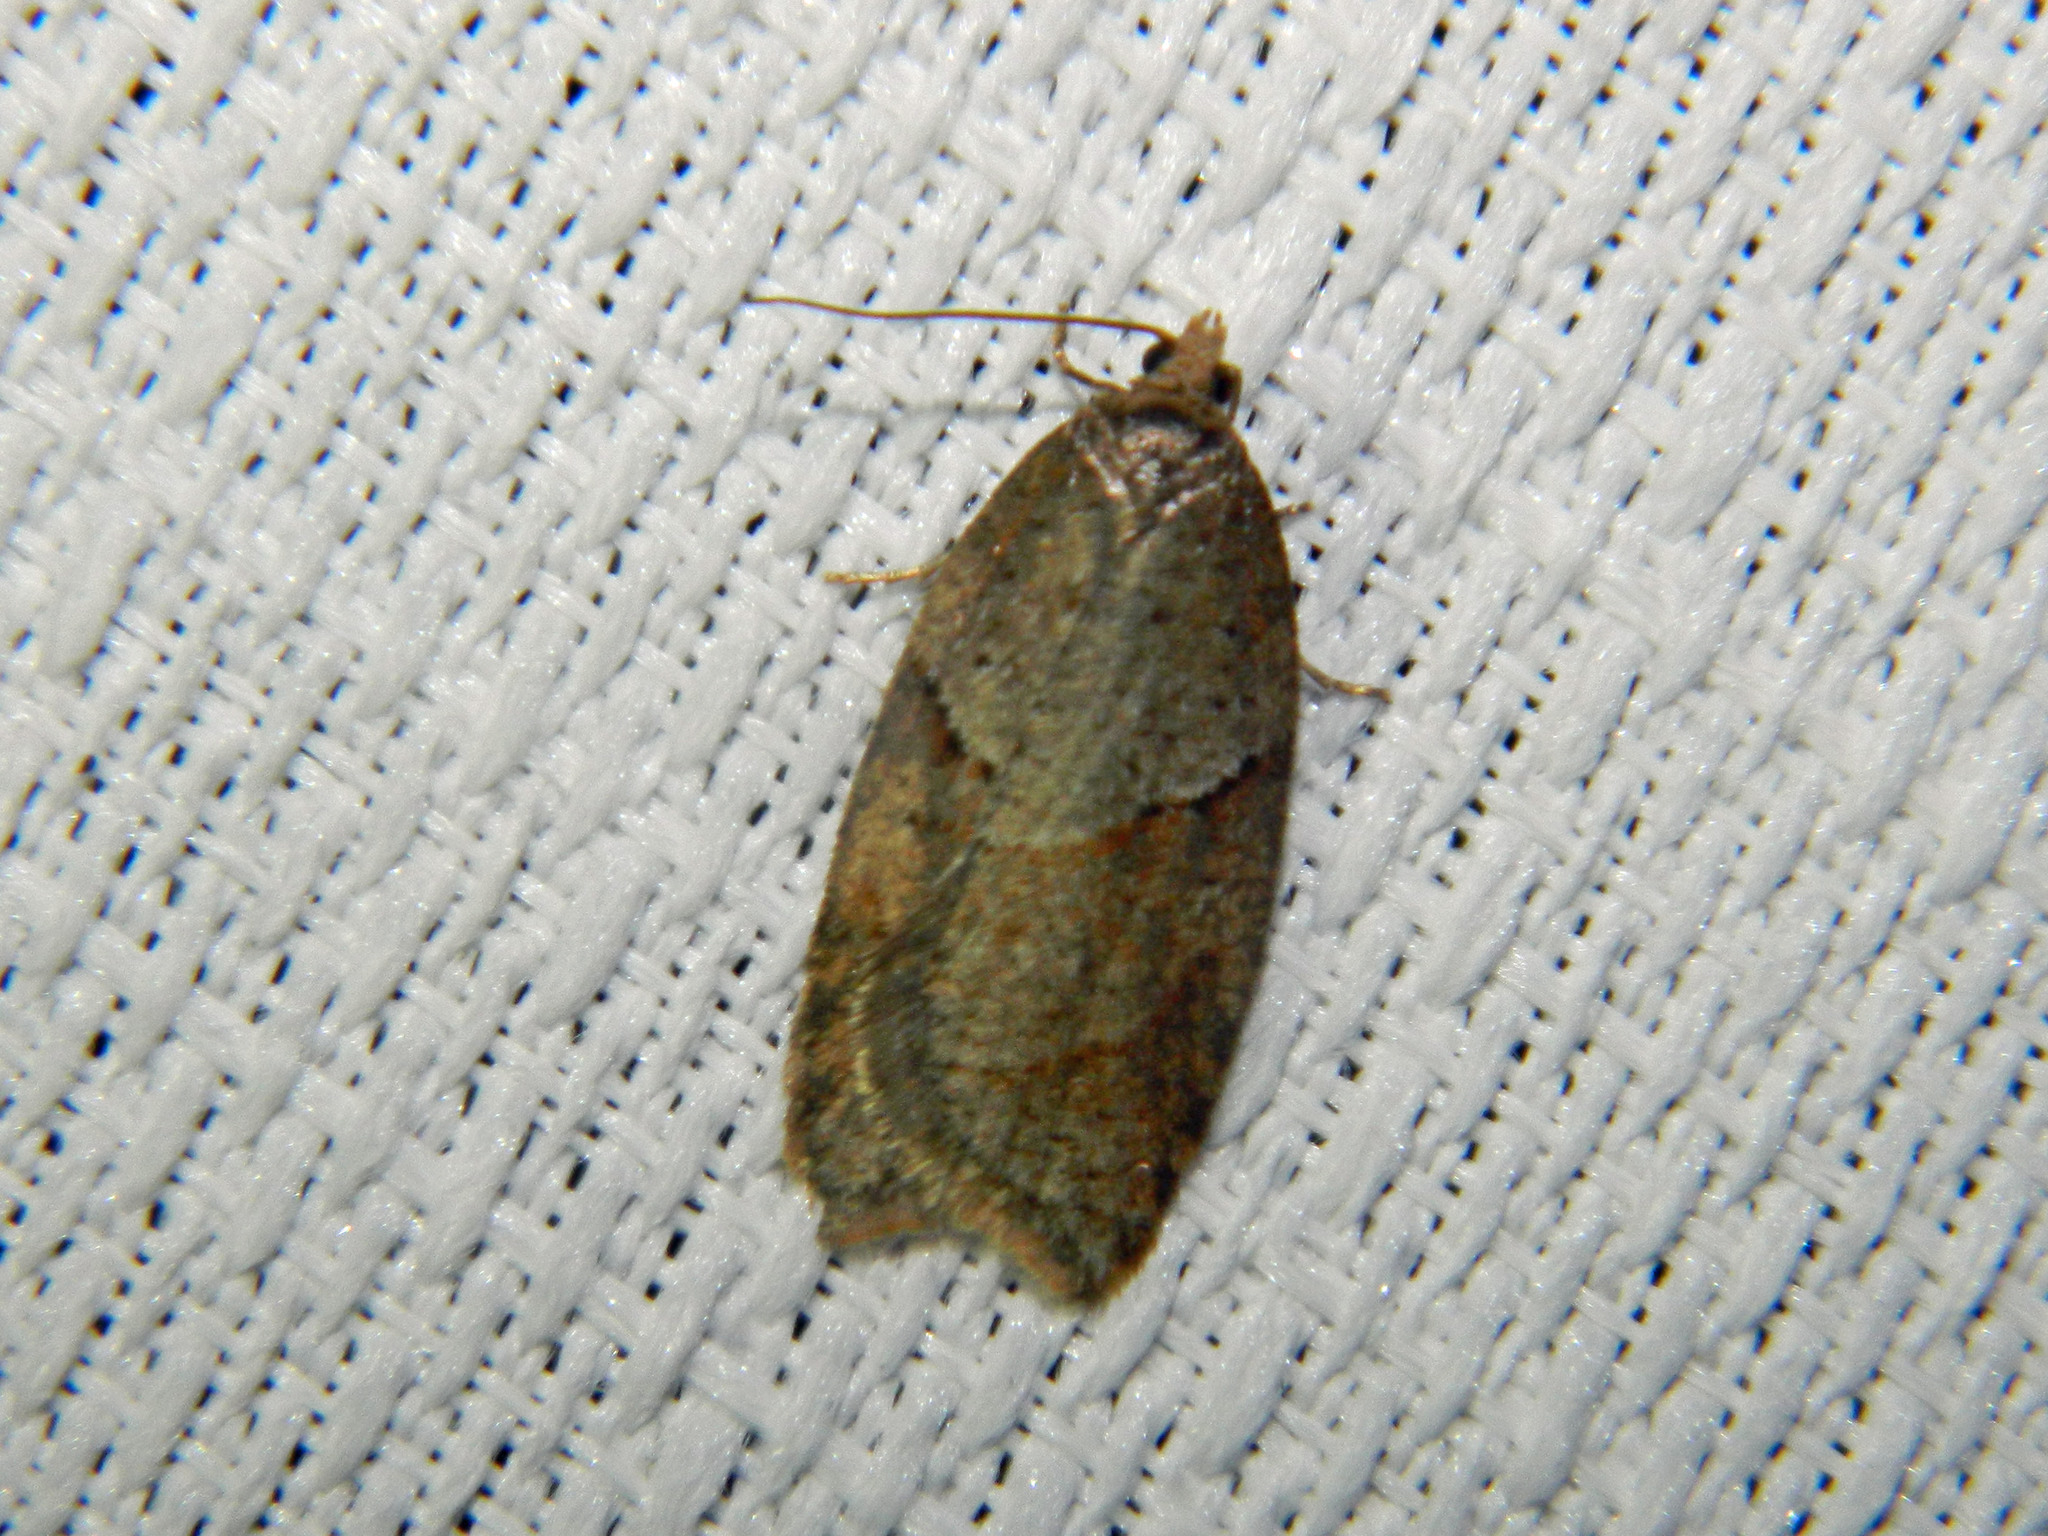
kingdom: Animalia
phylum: Arthropoda
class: Insecta
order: Lepidoptera
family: Tortricidae
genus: Acleris
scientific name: Acleris maccana
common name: Marbled button
